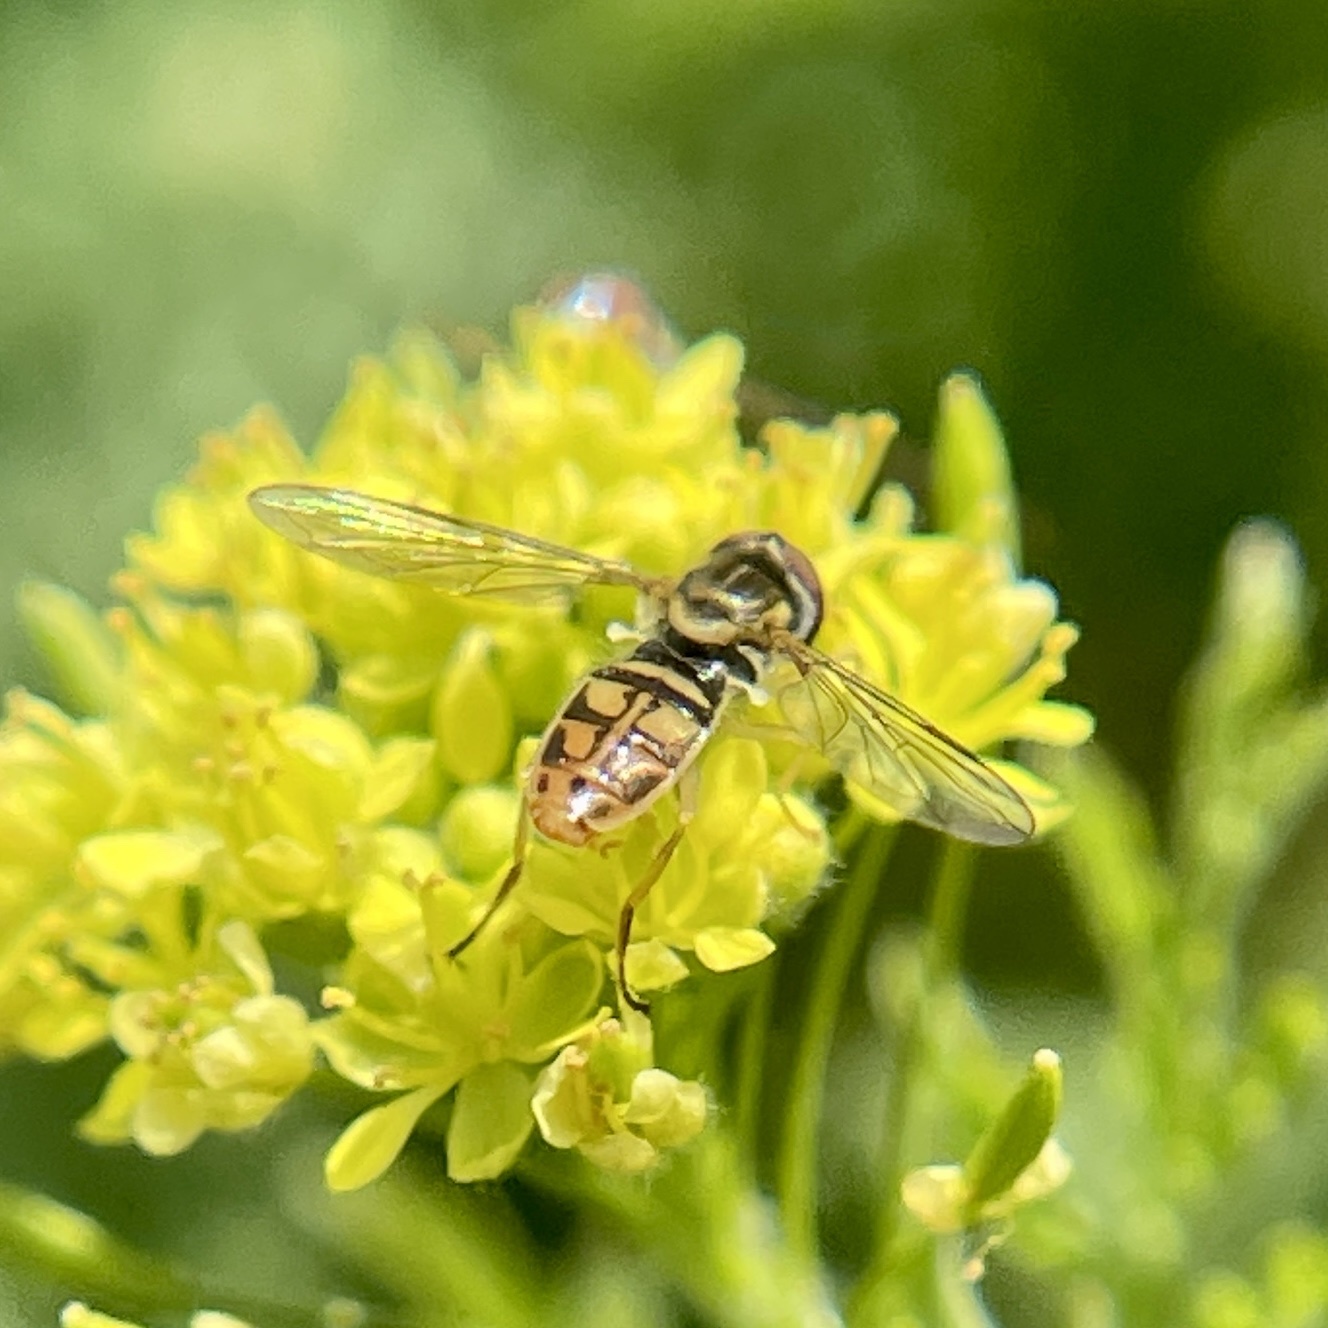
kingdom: Animalia
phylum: Arthropoda
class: Insecta
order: Diptera
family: Syrphidae
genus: Toxomerus
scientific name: Toxomerus marginatus
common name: Syrphid fly
